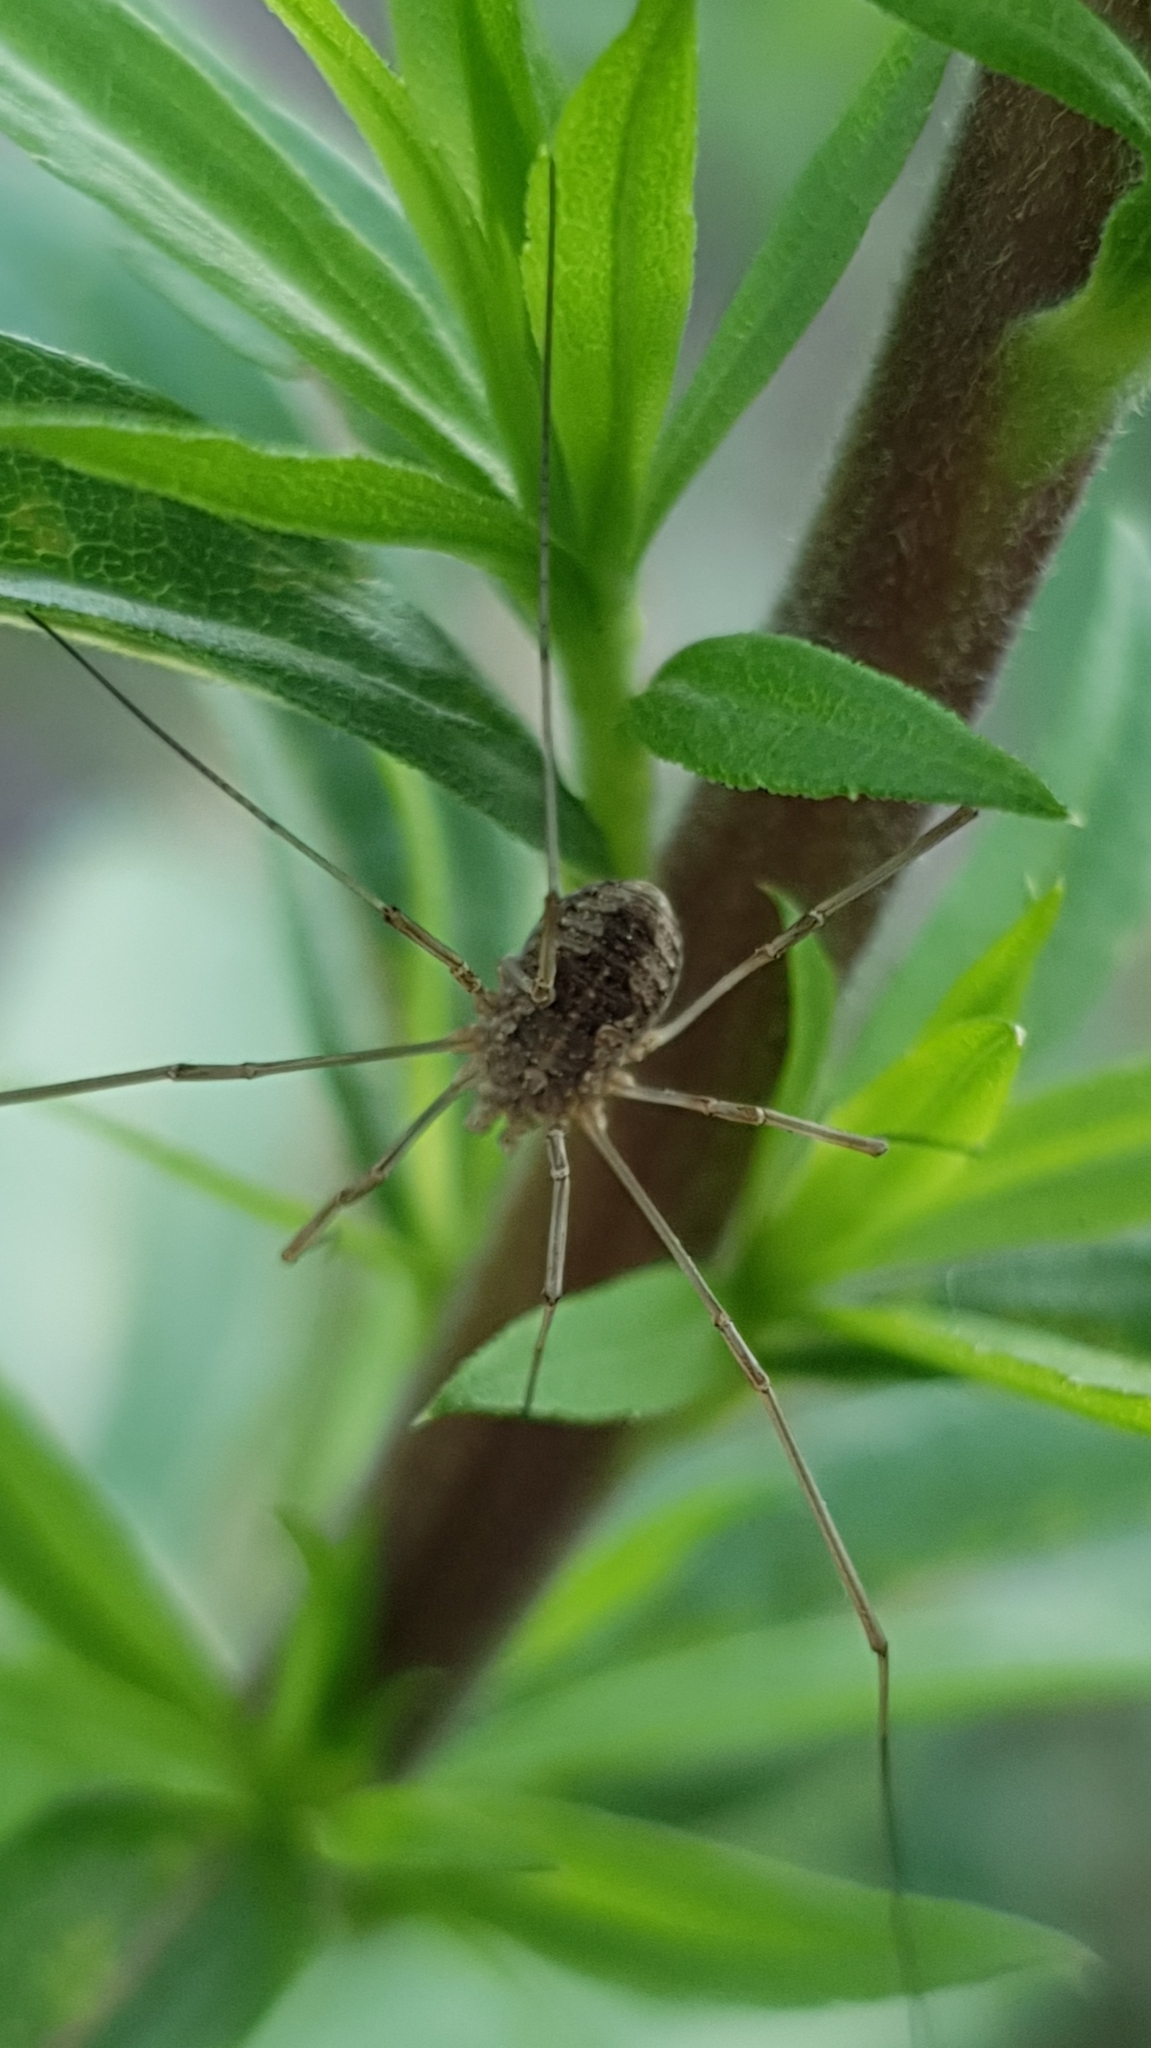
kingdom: Animalia
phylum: Arthropoda
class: Arachnida
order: Opiliones
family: Phalangiidae
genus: Phalangium
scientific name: Phalangium opilio
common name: Daddy longleg
